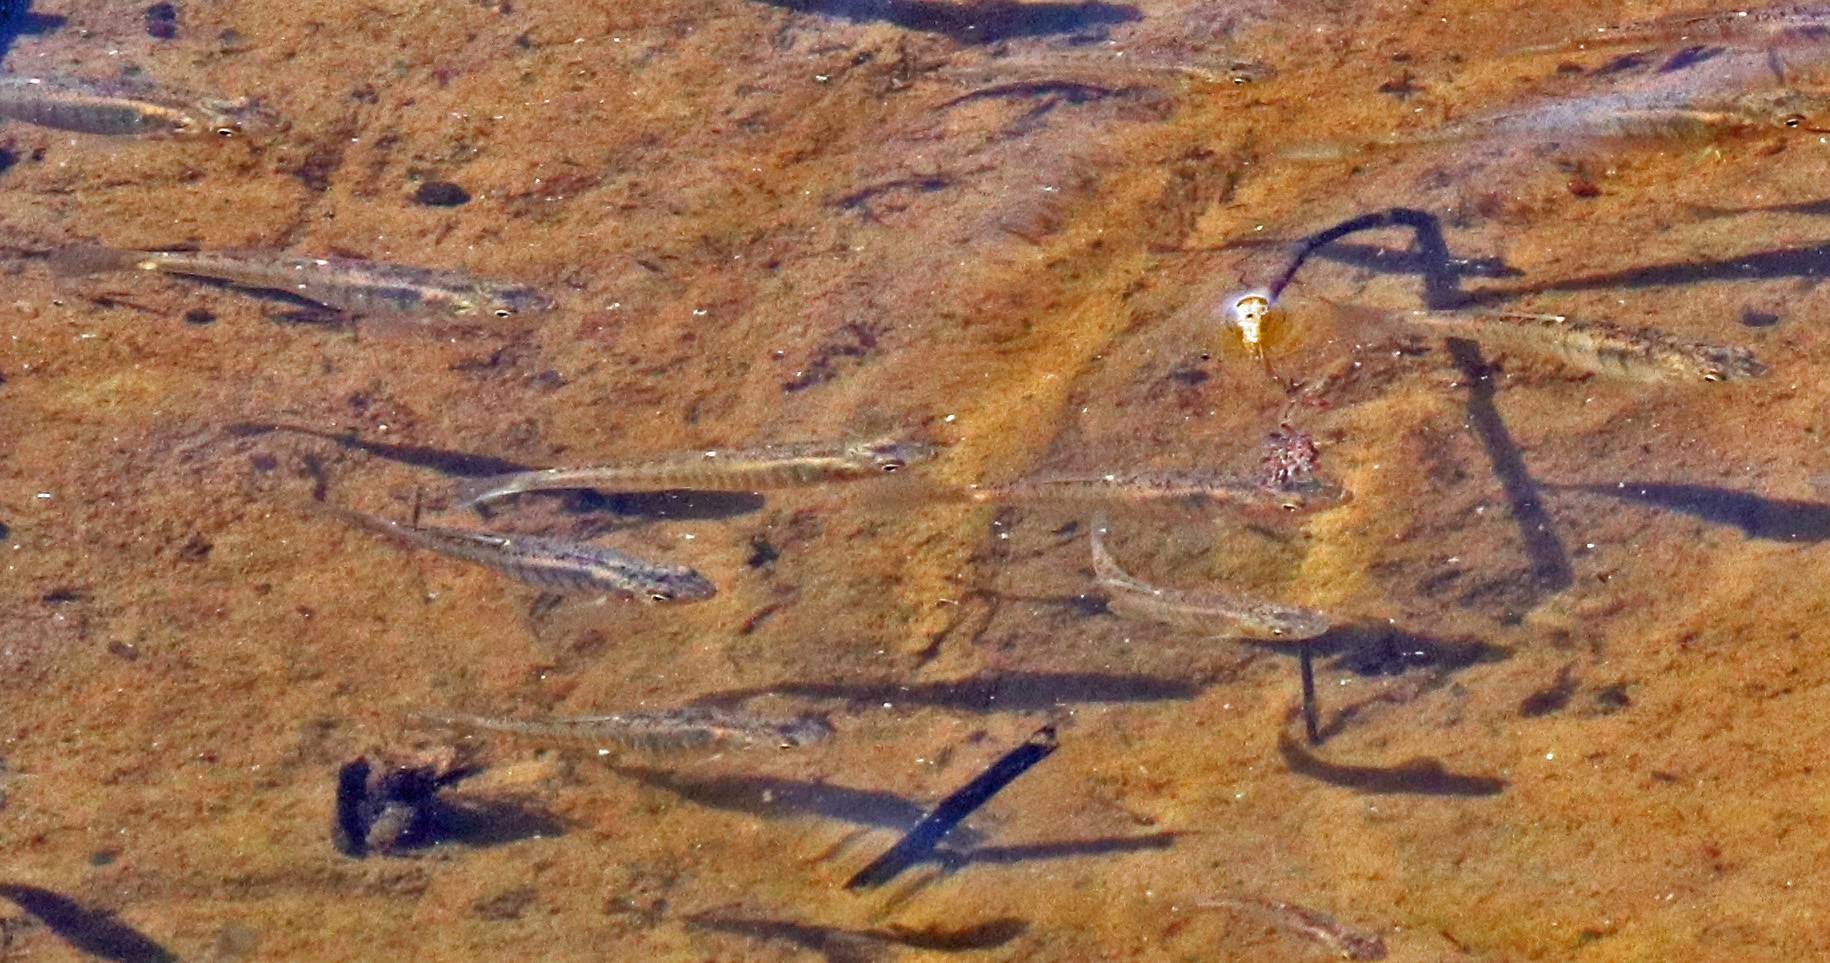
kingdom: Animalia
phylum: Chordata
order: Cyprinodontiformes
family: Fundulidae
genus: Fundulus
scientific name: Fundulus diaphanus
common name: Banded killifish
